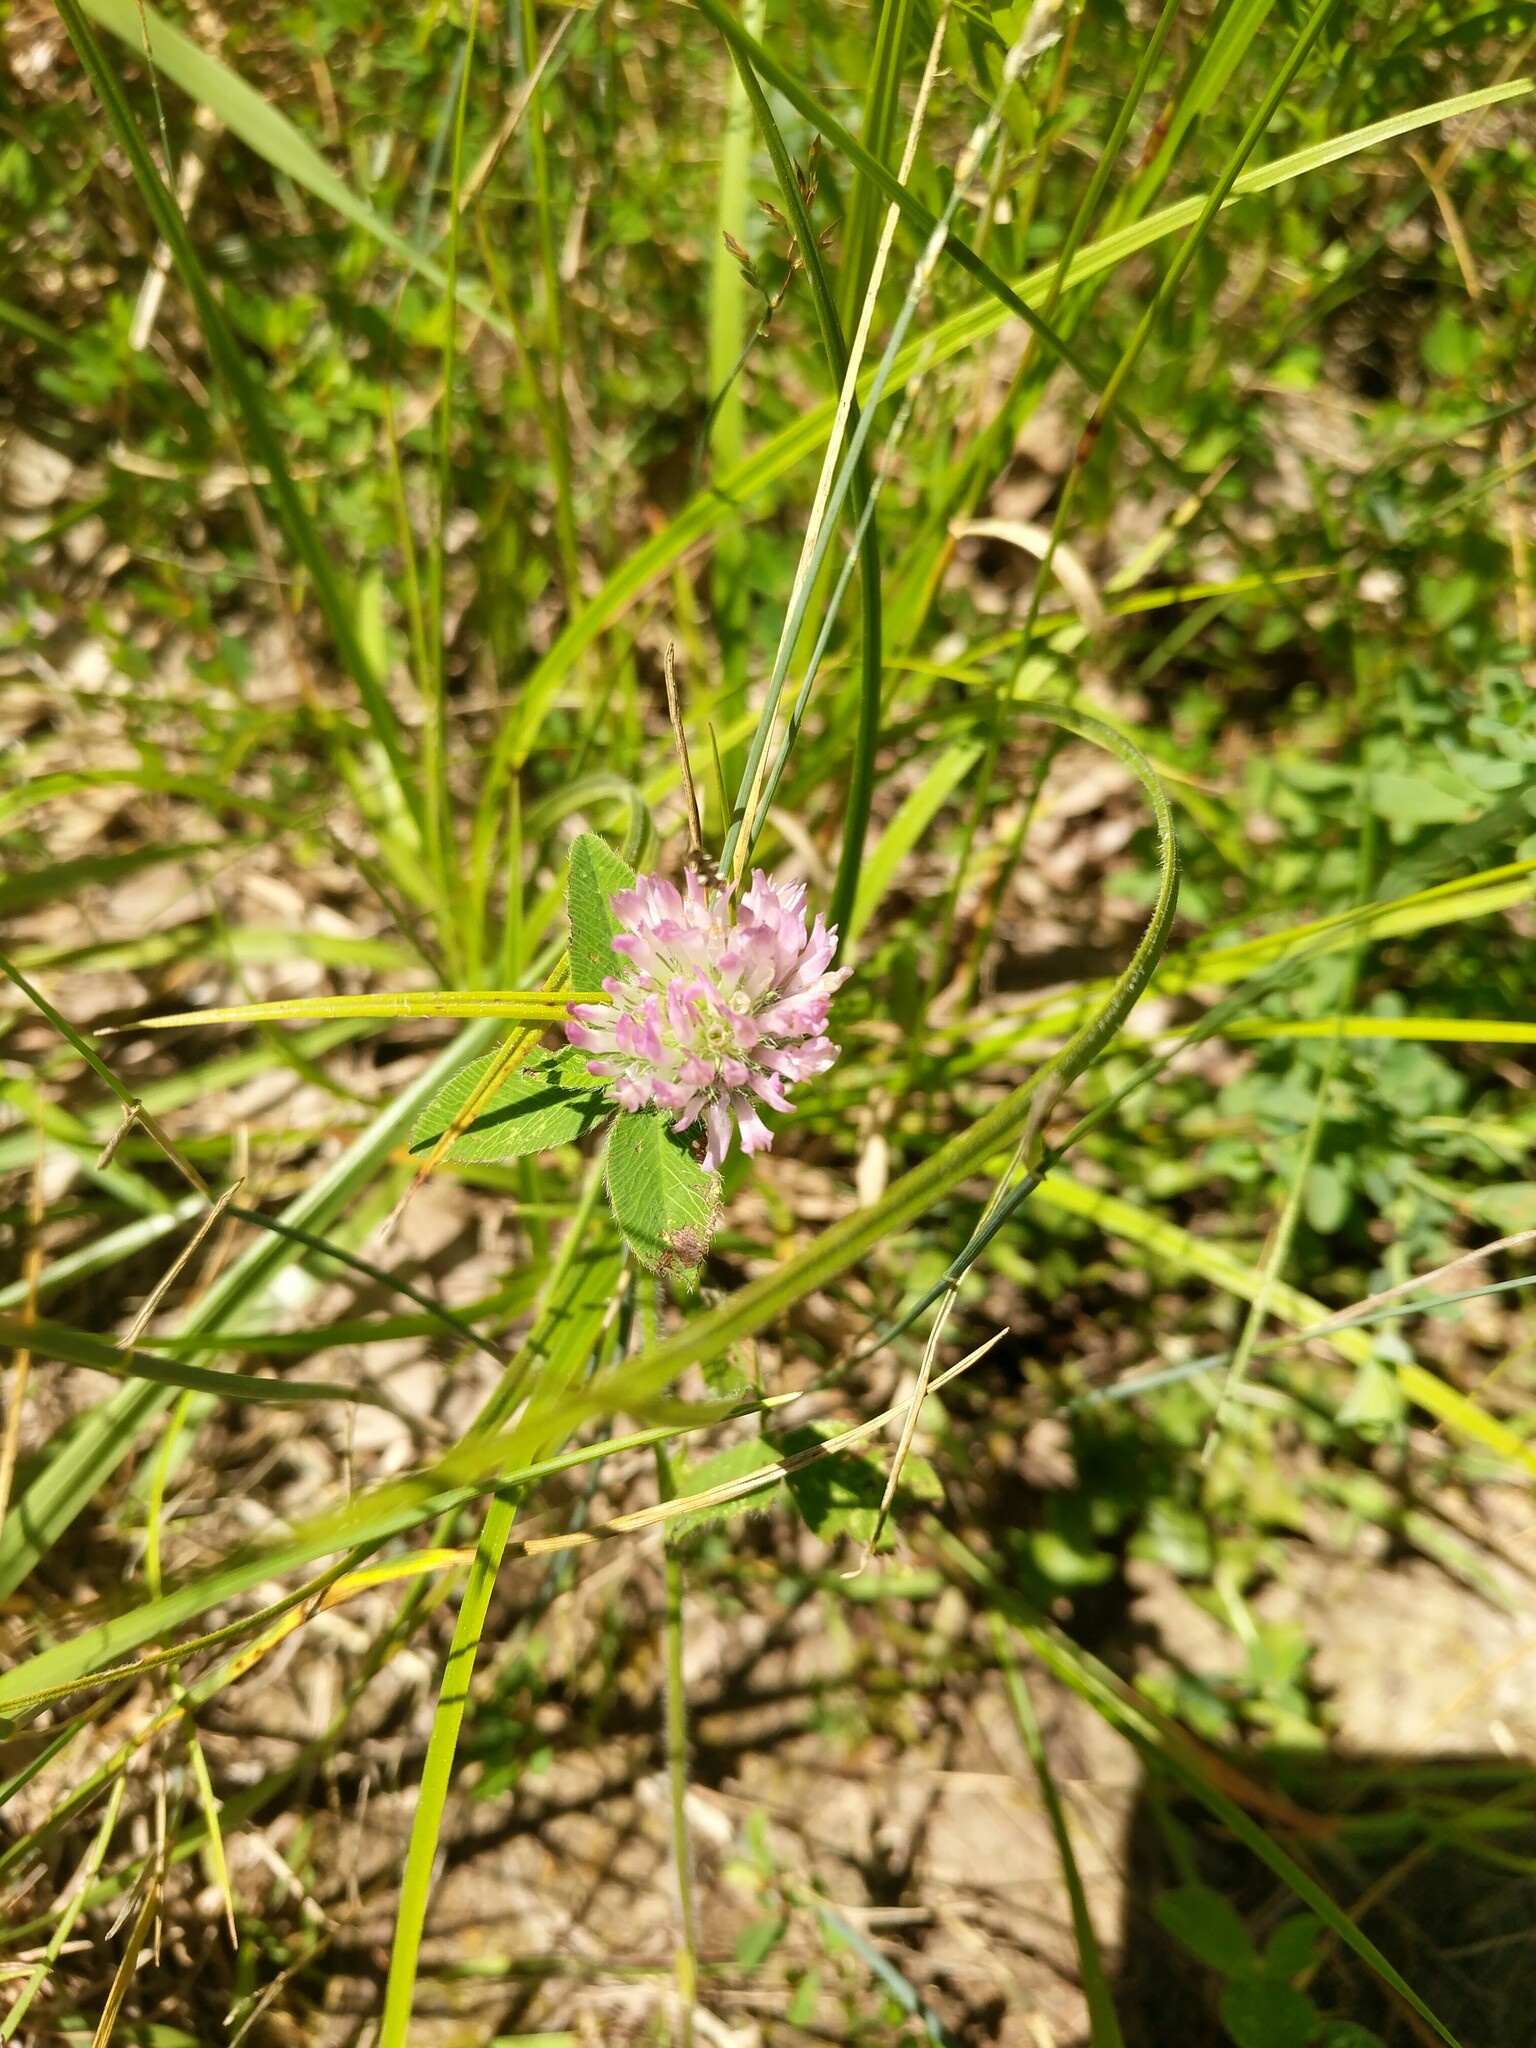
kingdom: Plantae
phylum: Tracheophyta
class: Magnoliopsida
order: Fabales
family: Fabaceae
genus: Trifolium
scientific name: Trifolium pratense
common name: Red clover
